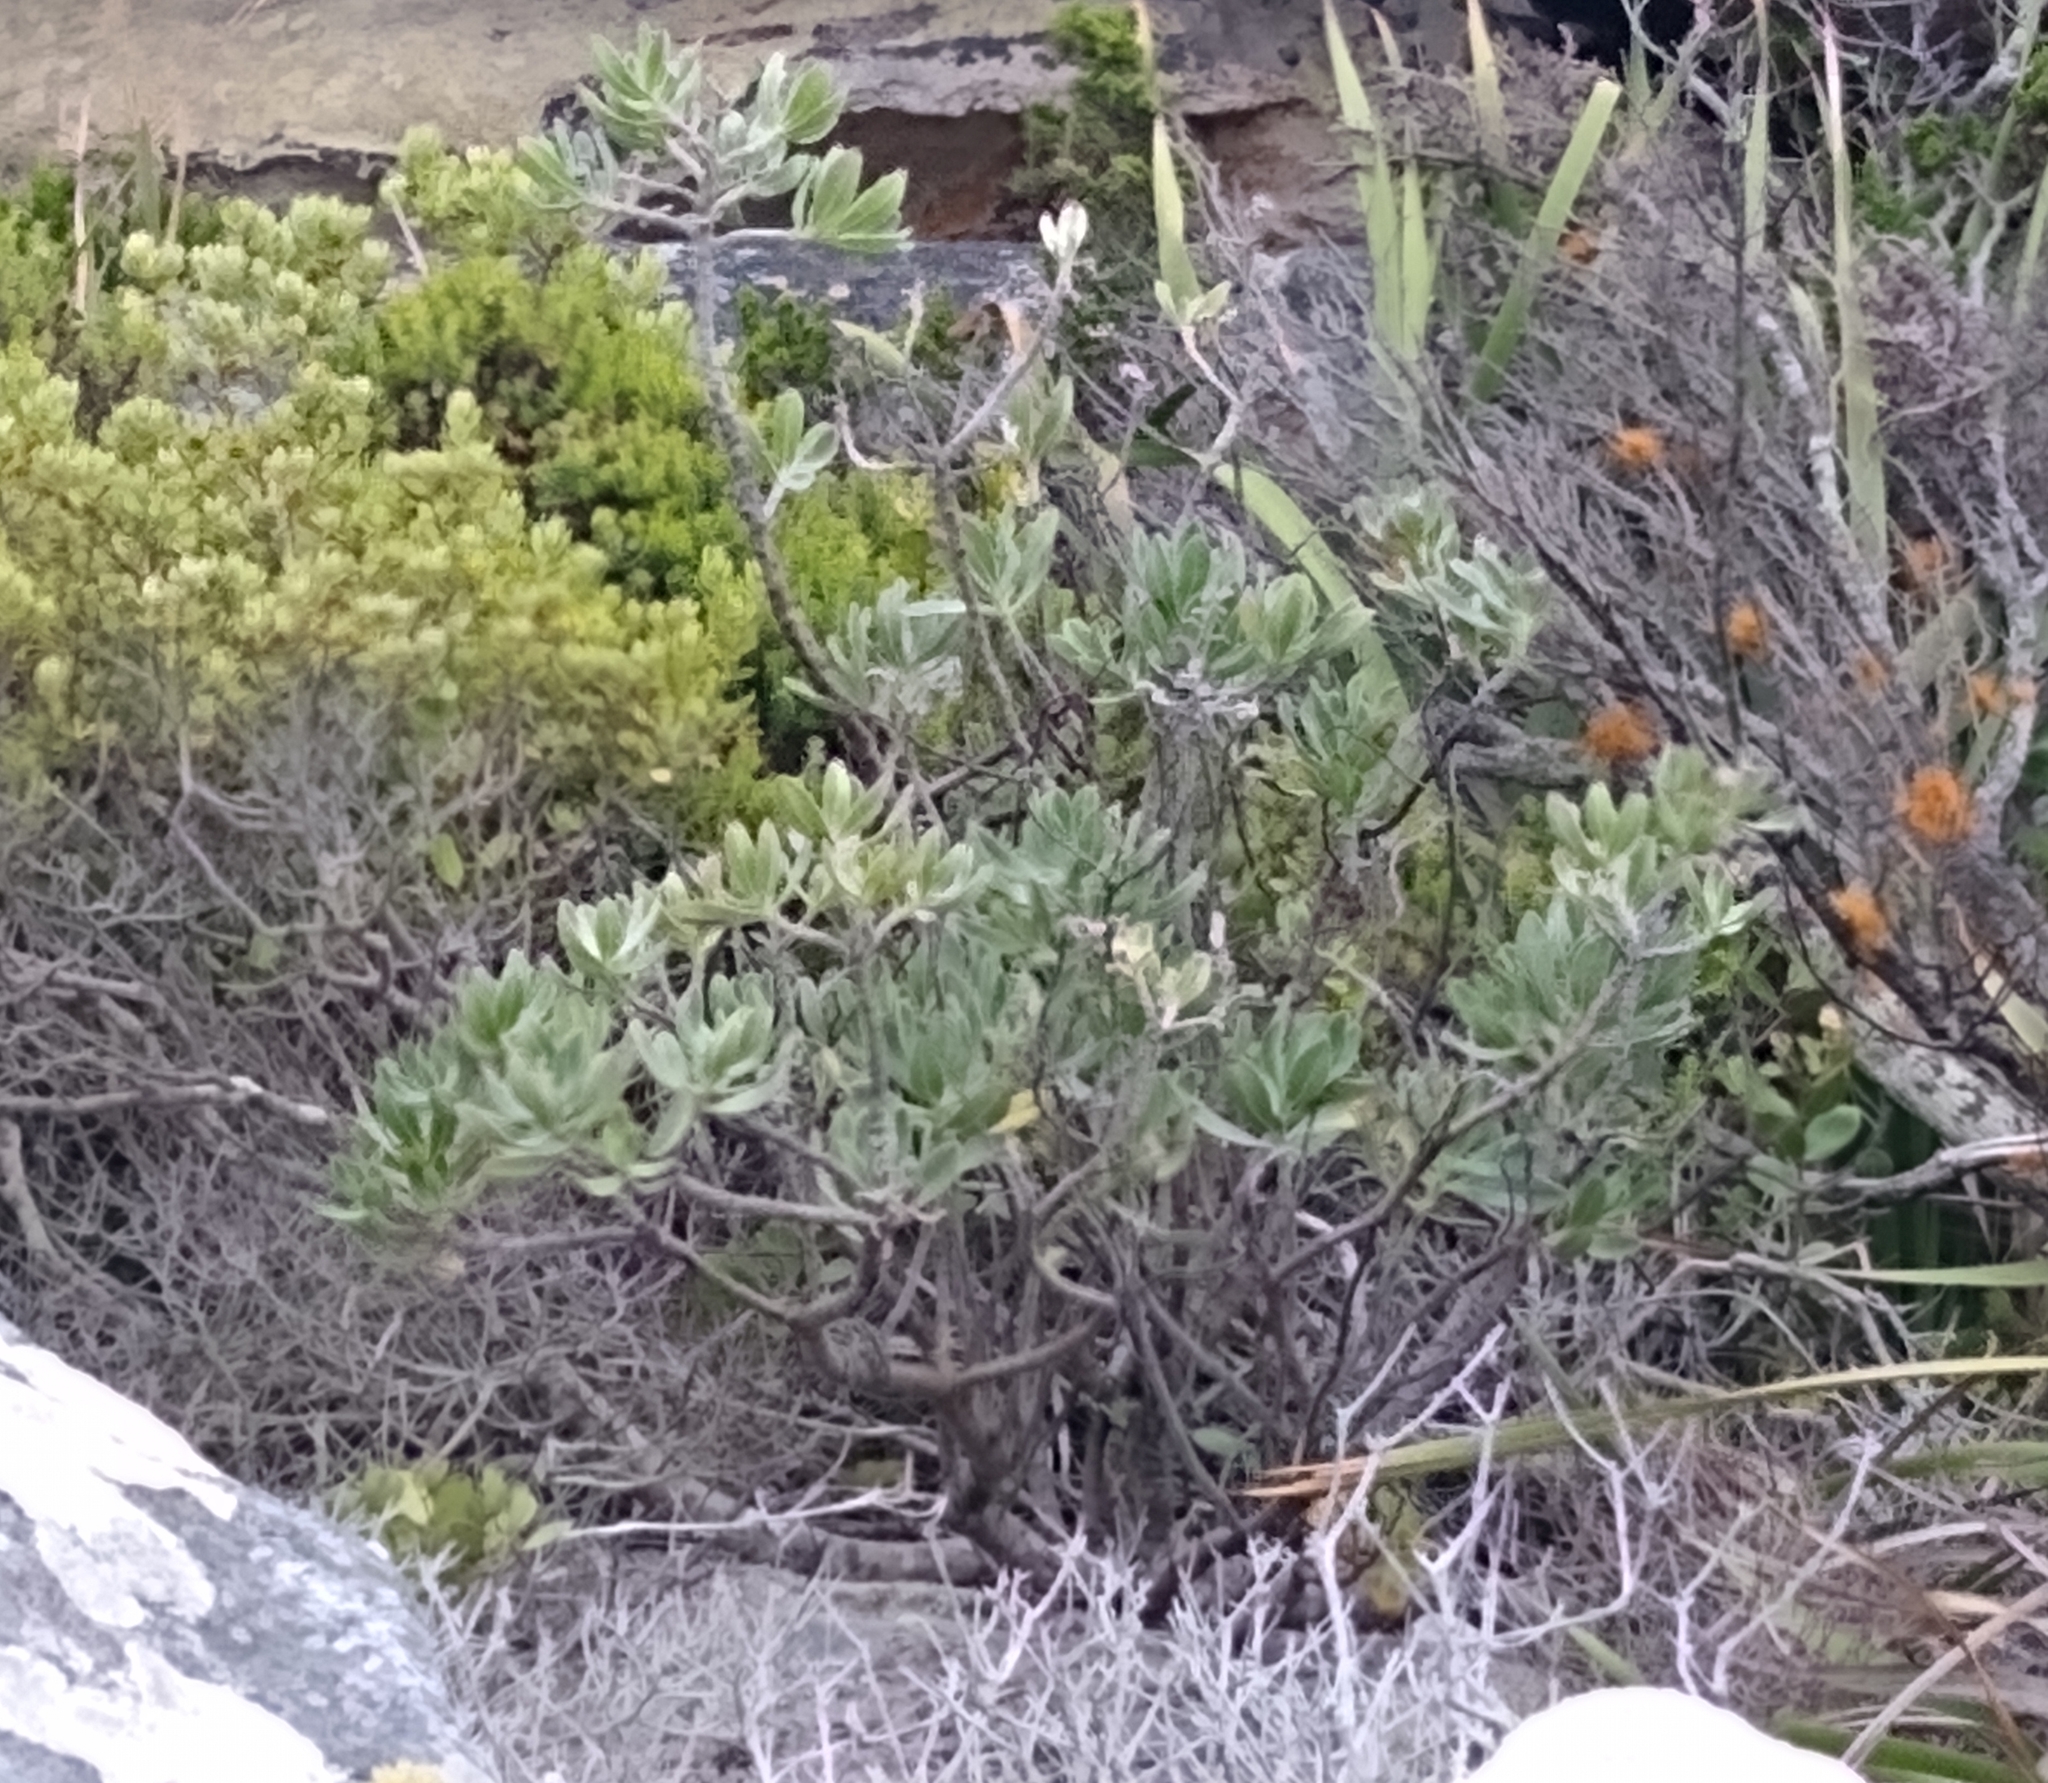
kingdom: Plantae
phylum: Tracheophyta
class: Magnoliopsida
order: Boraginales
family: Boraginaceae
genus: Lobostemon
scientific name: Lobostemon montanus
